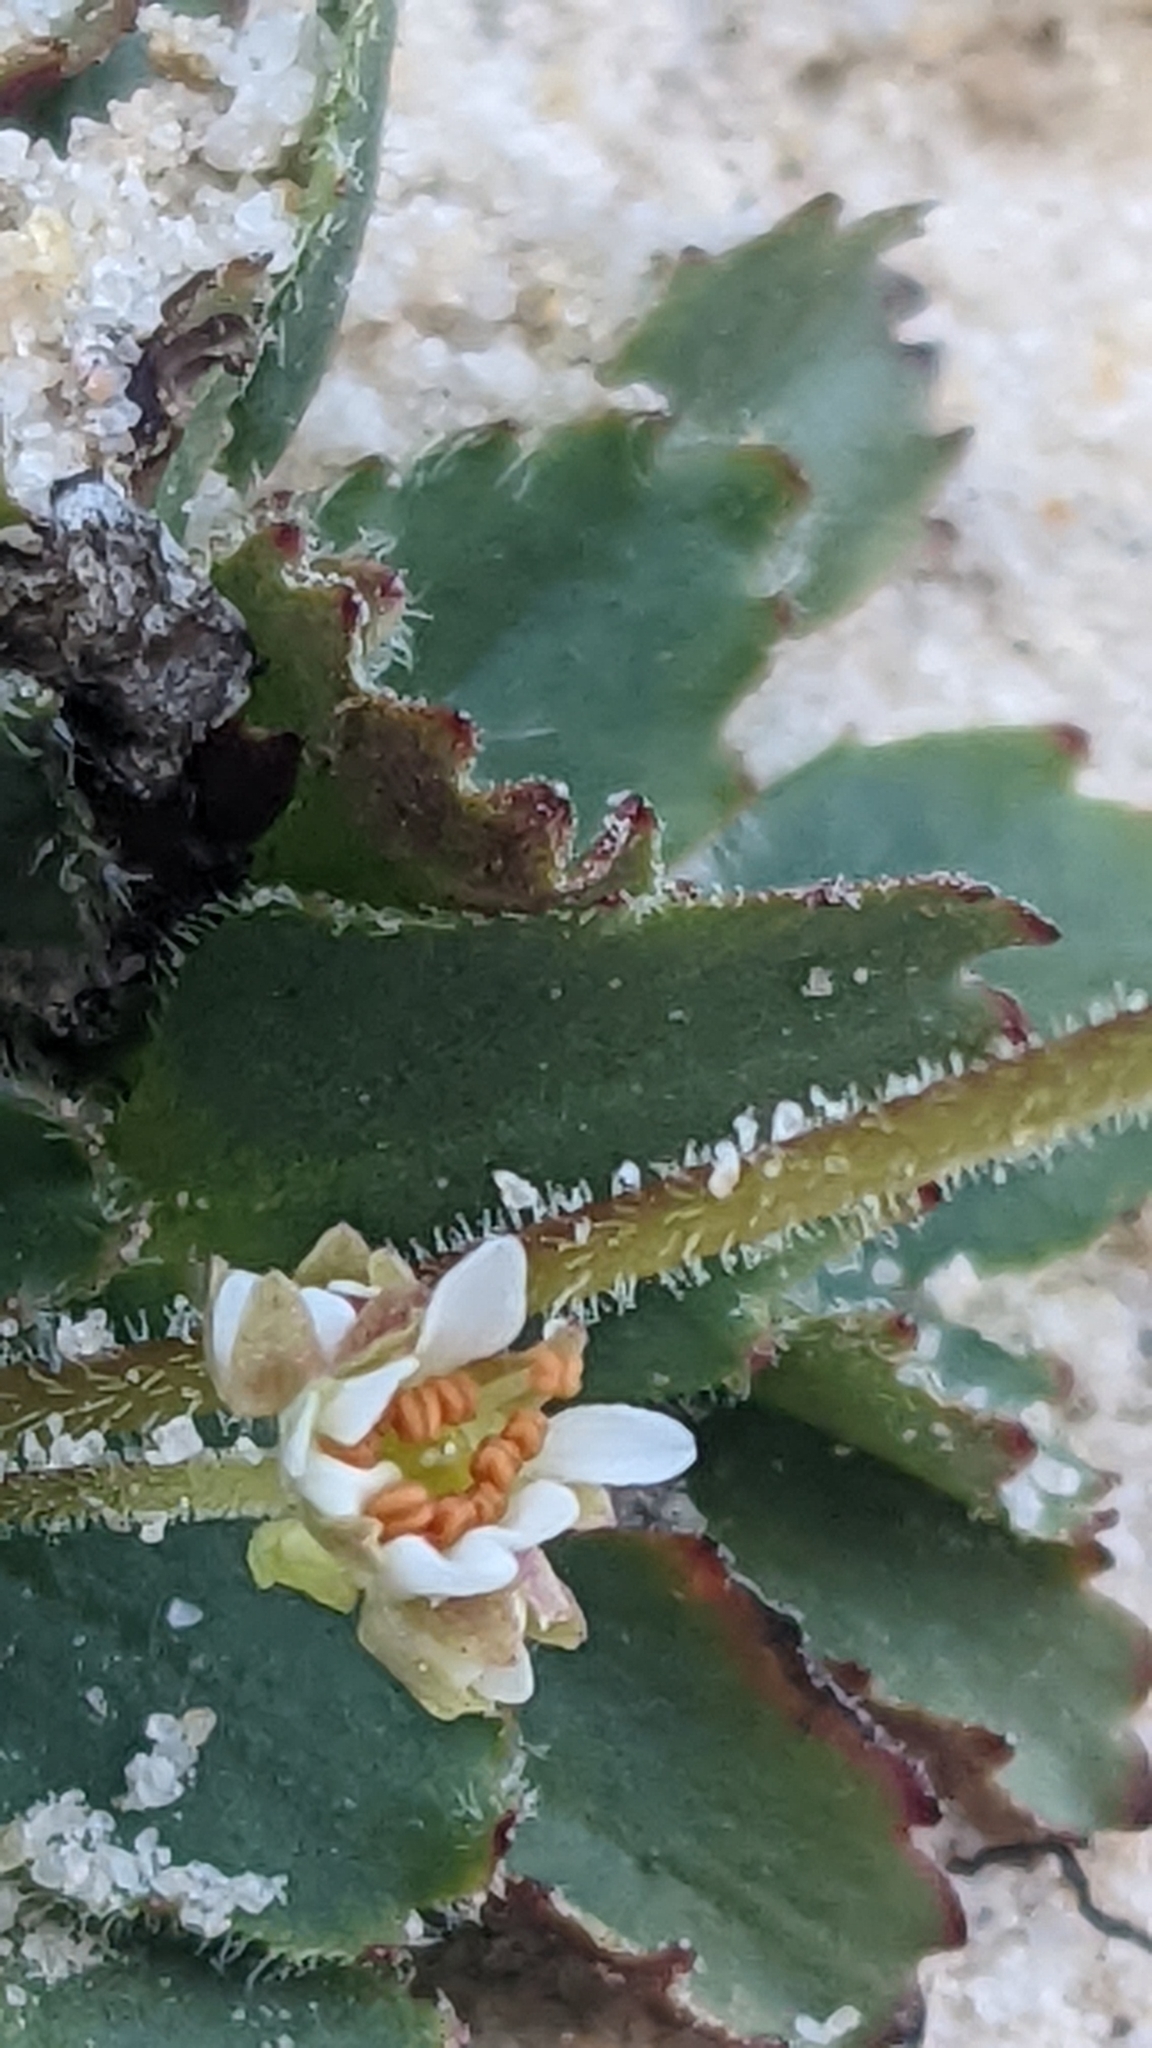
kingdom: Plantae
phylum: Tracheophyta
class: Magnoliopsida
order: Saxifragales
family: Saxifragaceae
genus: Micranthes
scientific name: Micranthes rhomboidea
